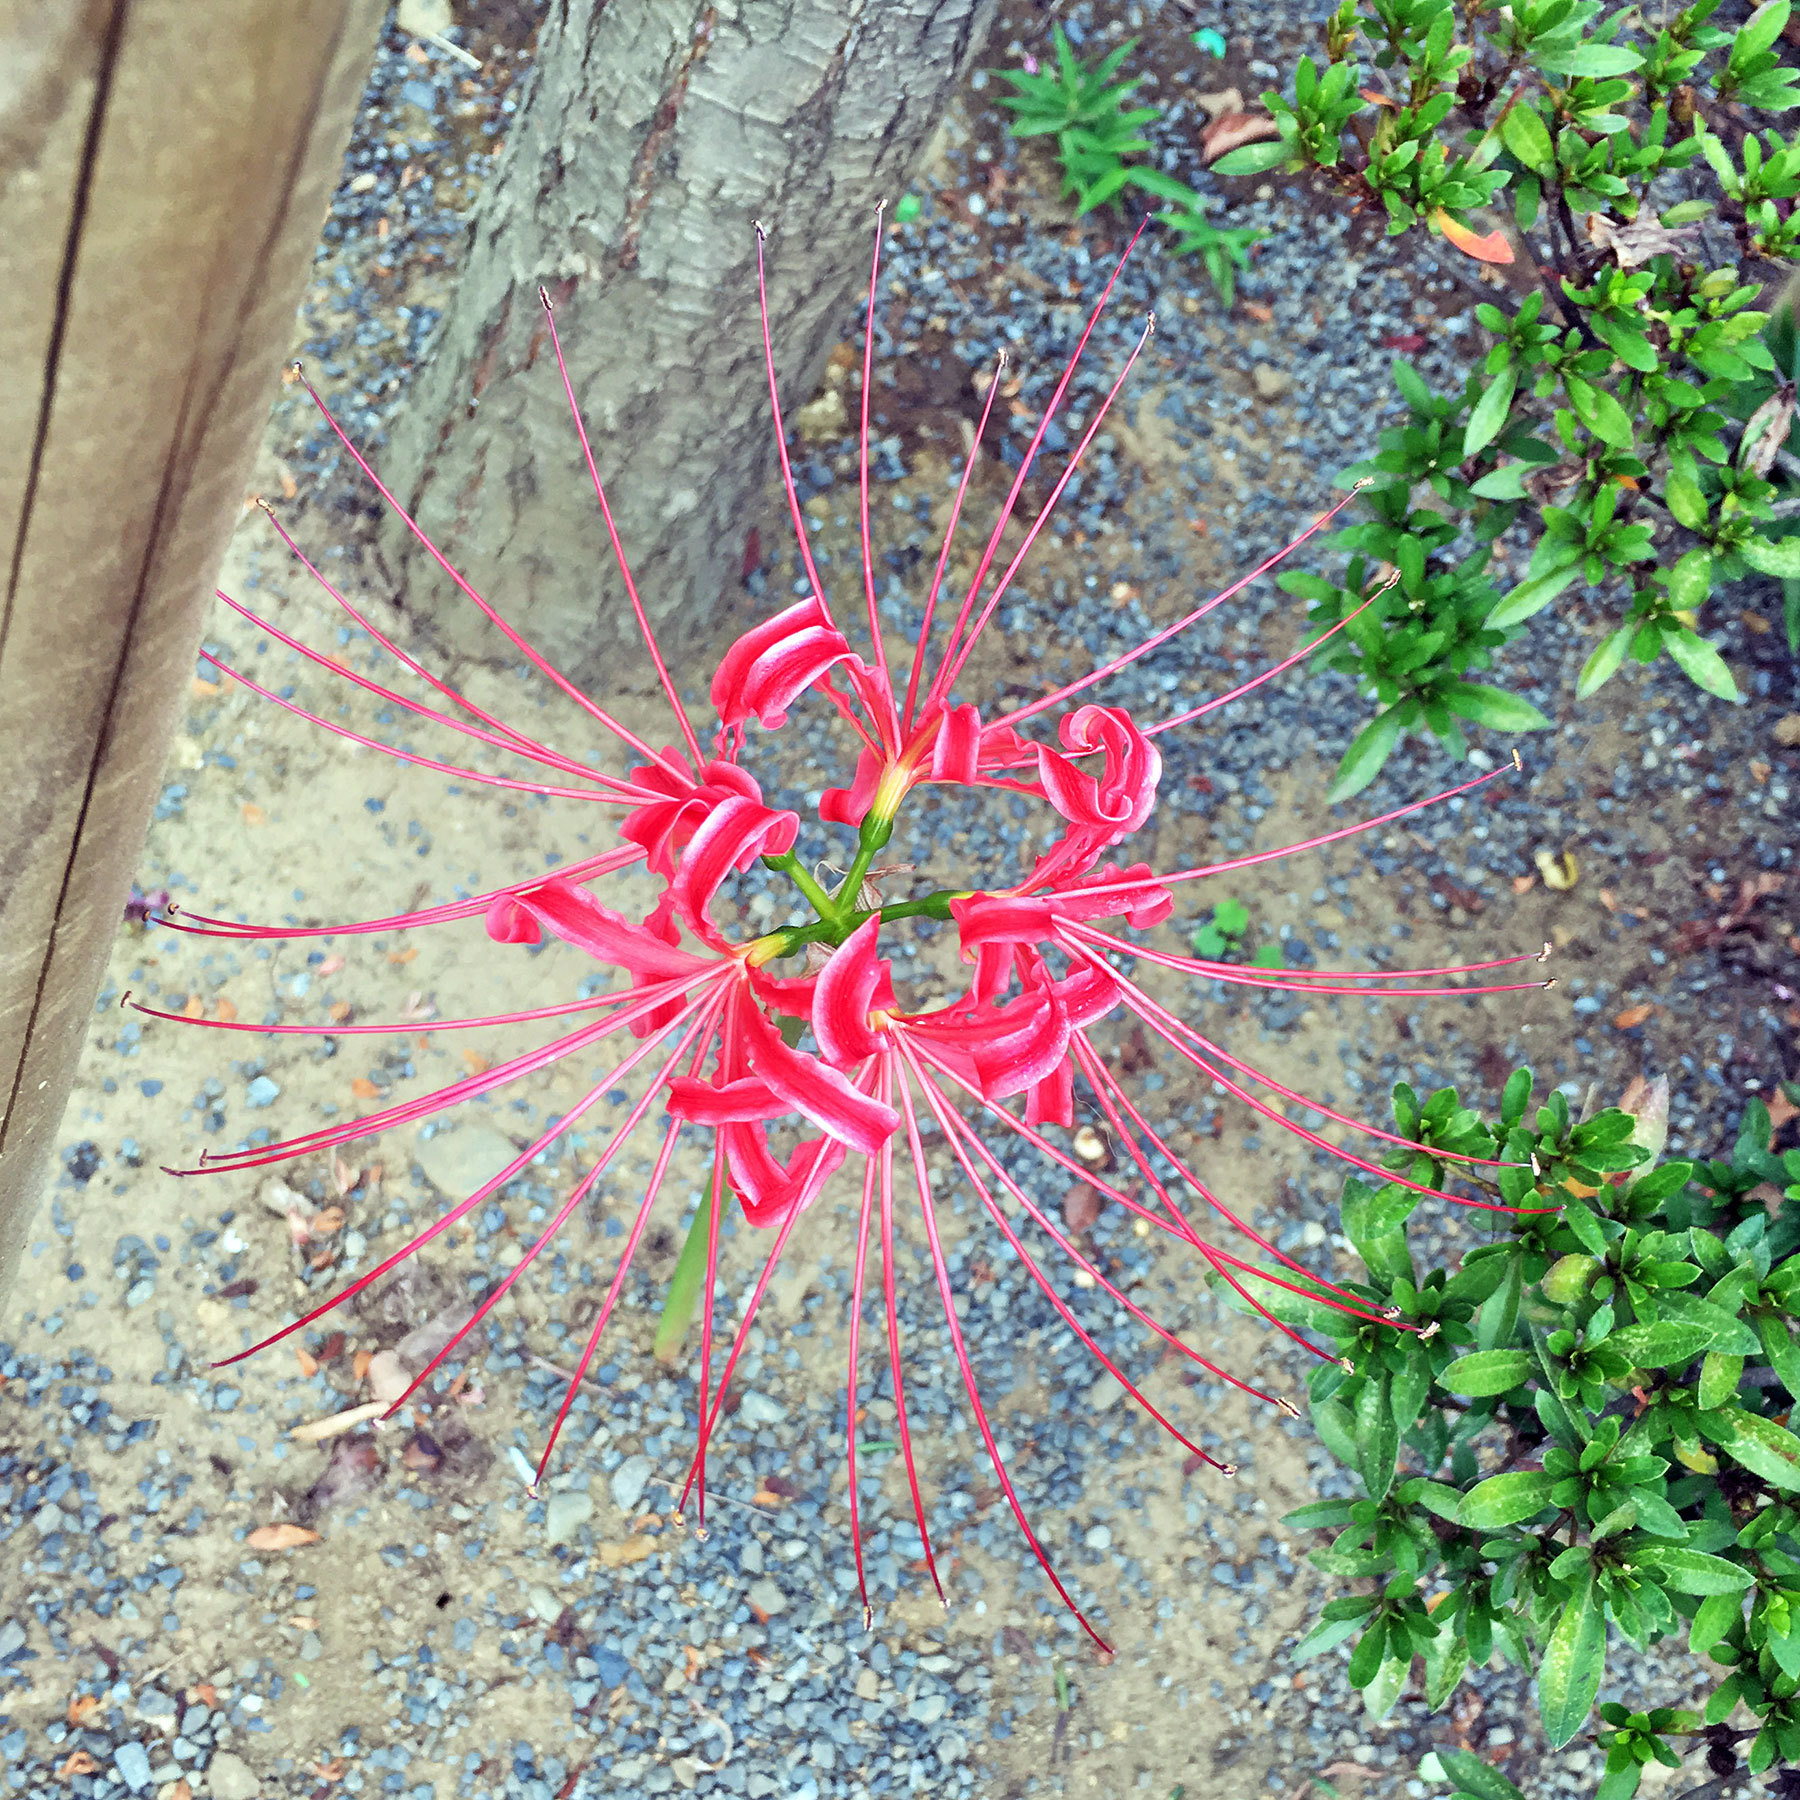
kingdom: Plantae
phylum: Tracheophyta
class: Liliopsida
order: Asparagales
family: Amaryllidaceae
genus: Lycoris
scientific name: Lycoris radiata
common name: Red spider lily
